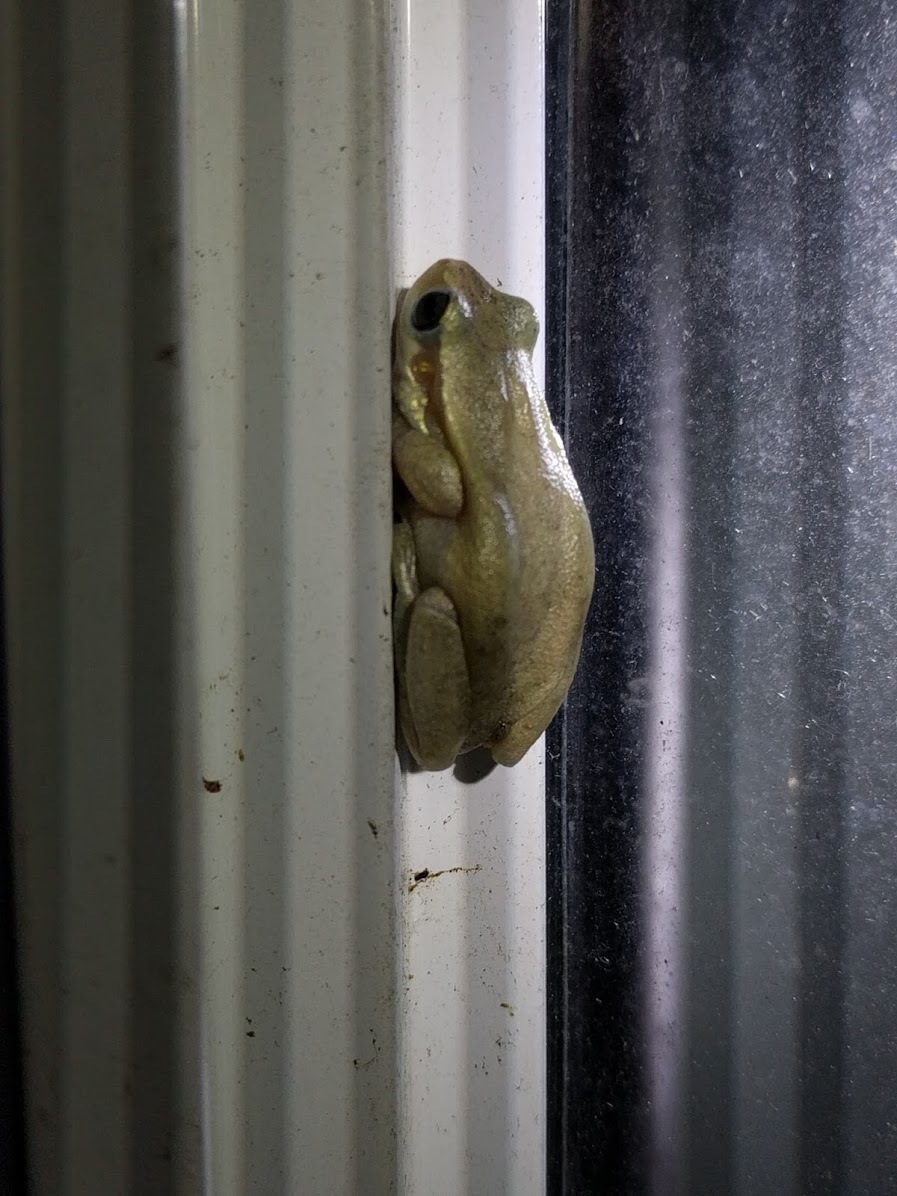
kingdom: Animalia
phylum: Chordata
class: Amphibia
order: Anura
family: Pelodryadidae
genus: Litoria
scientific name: Litoria rubella
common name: Desert tree frog
